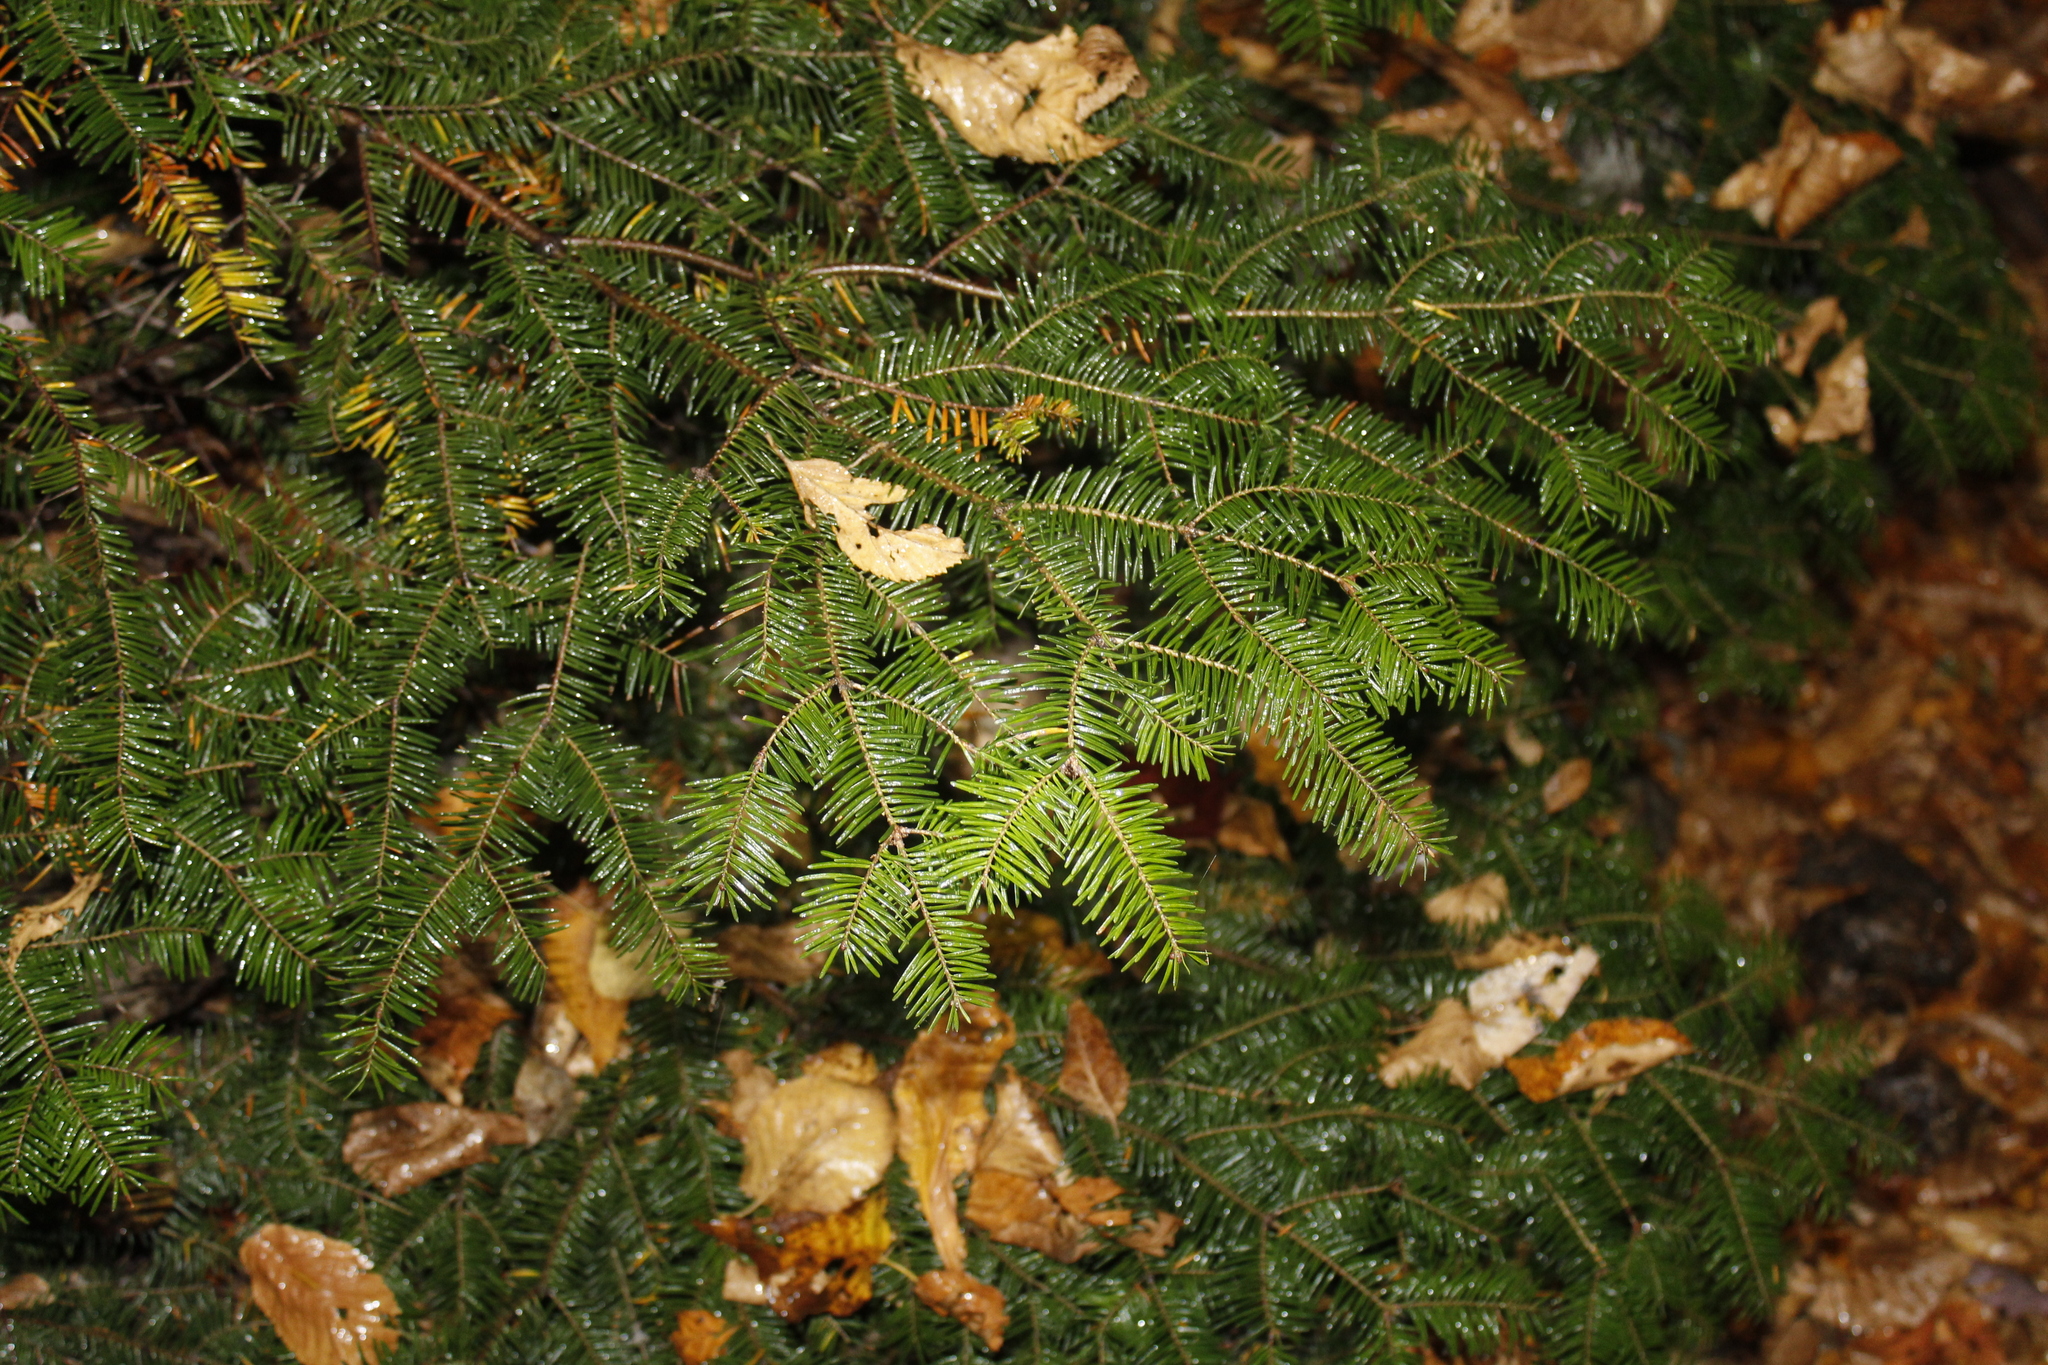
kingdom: Plantae
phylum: Tracheophyta
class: Pinopsida
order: Pinales
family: Pinaceae
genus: Abies
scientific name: Abies balsamea
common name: Balsam fir
